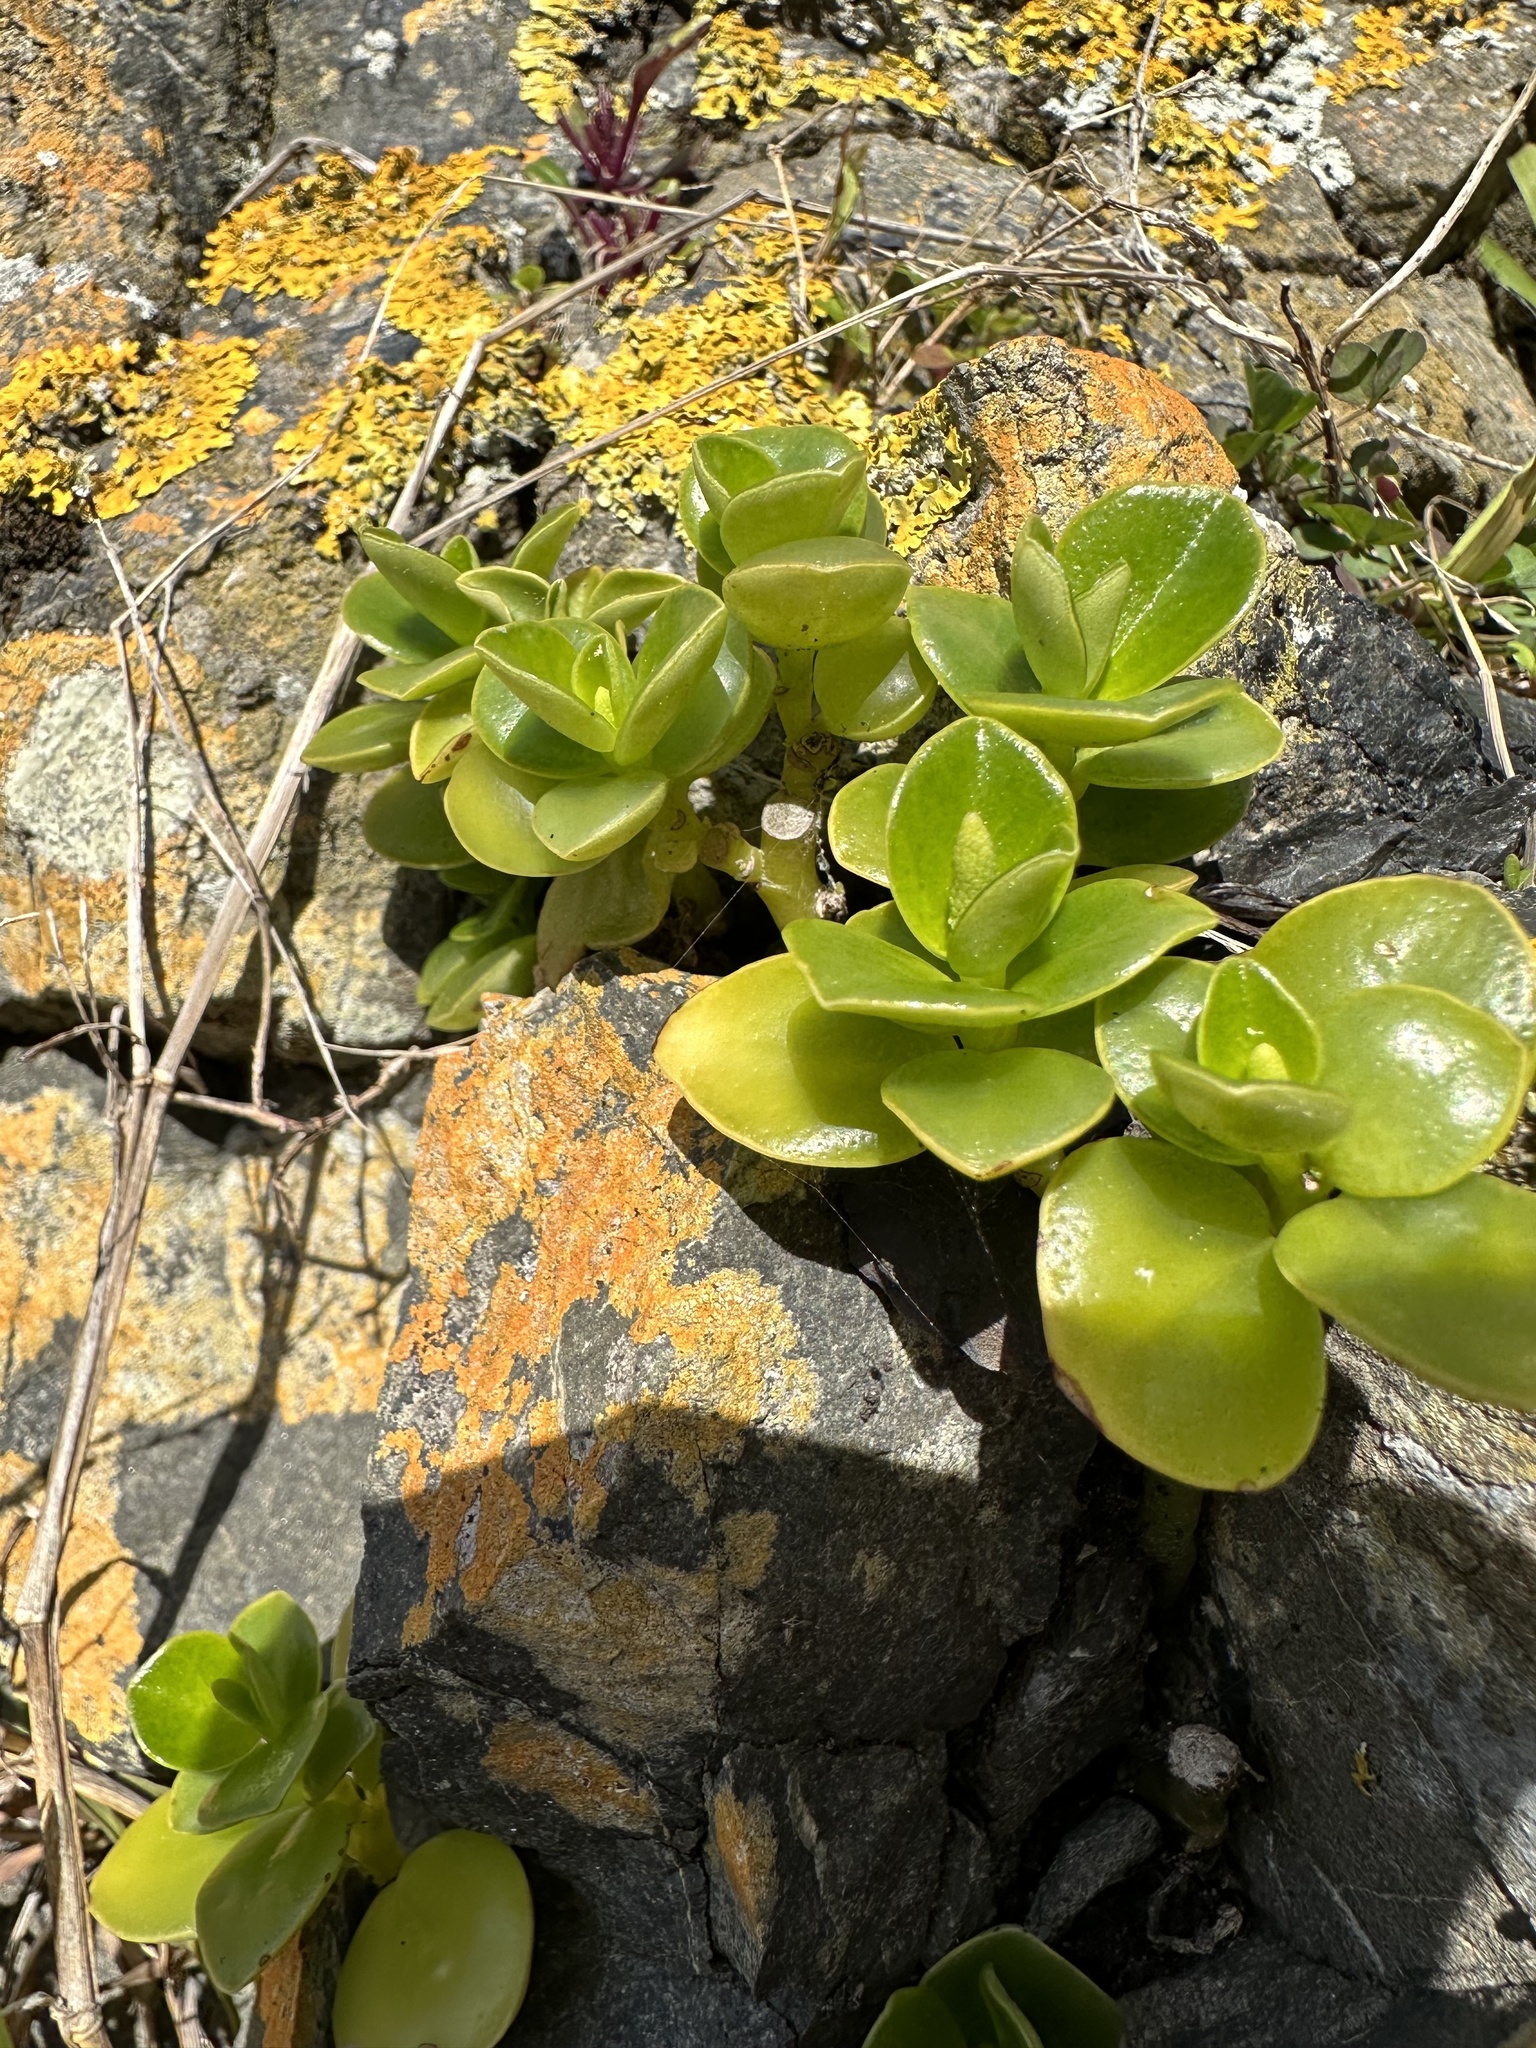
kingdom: Plantae
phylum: Tracheophyta
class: Magnoliopsida
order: Piperales
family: Piperaceae
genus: Peperomia
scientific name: Peperomia urvilleana
